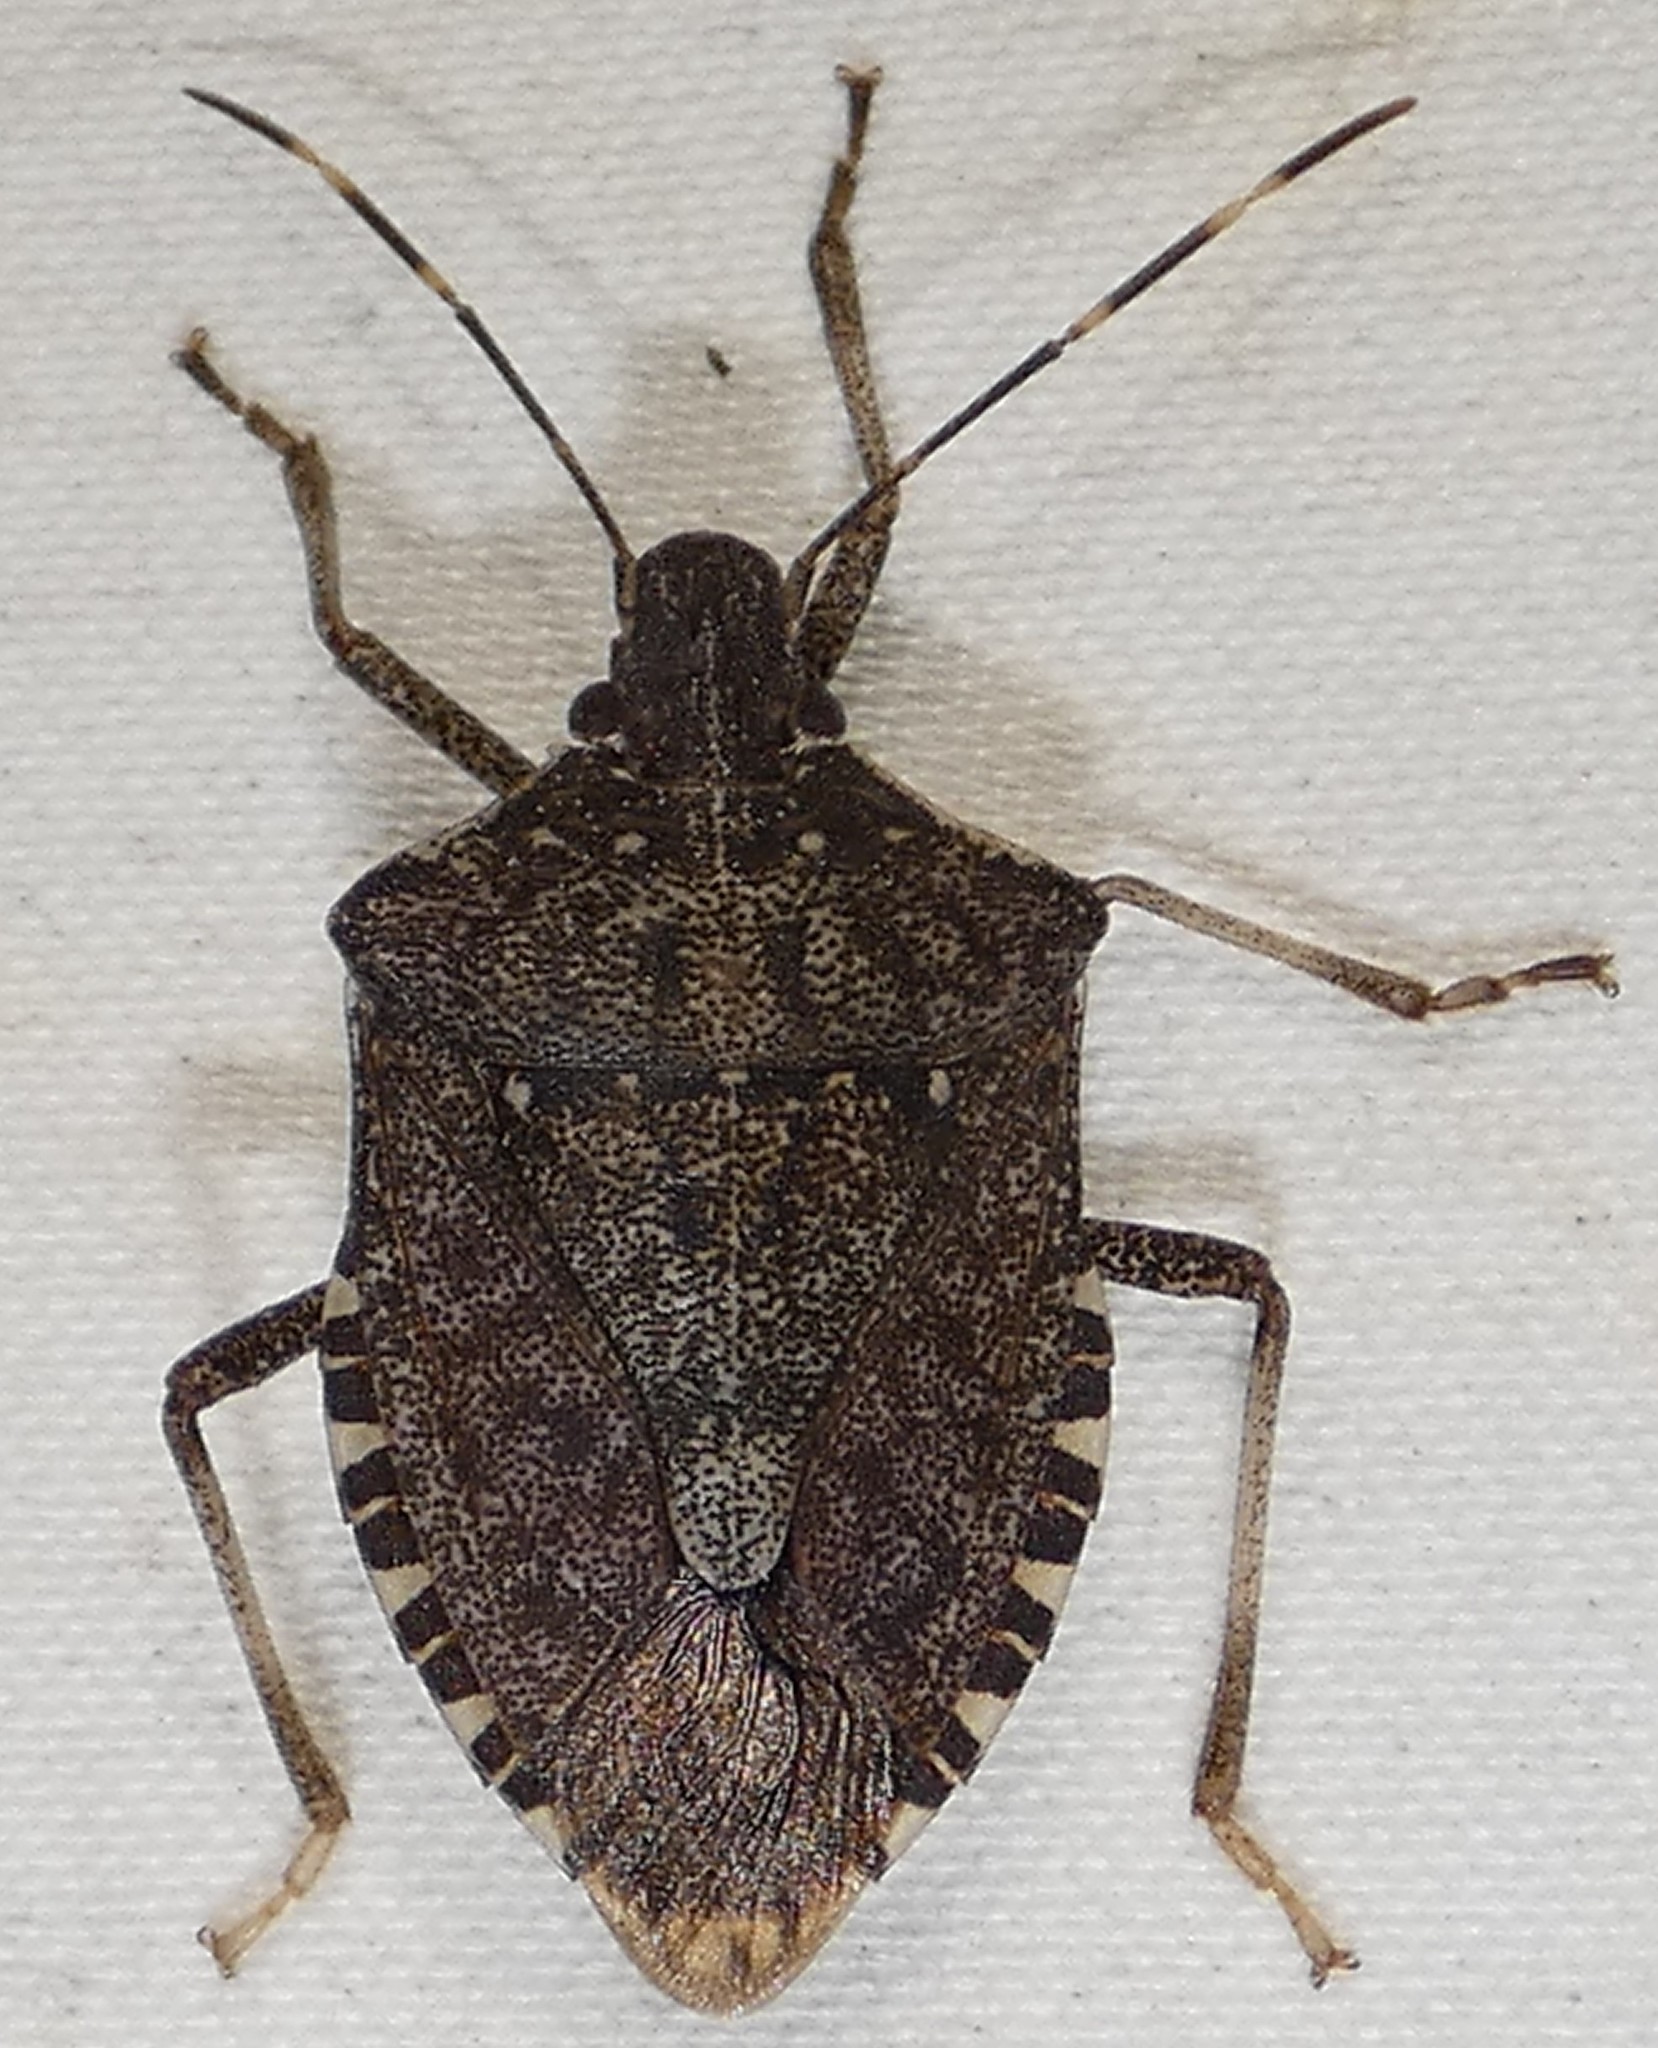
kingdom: Animalia
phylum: Arthropoda
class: Insecta
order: Hemiptera
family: Pentatomidae
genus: Halyomorpha
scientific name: Halyomorpha halys
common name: Brown marmorated stink bug
